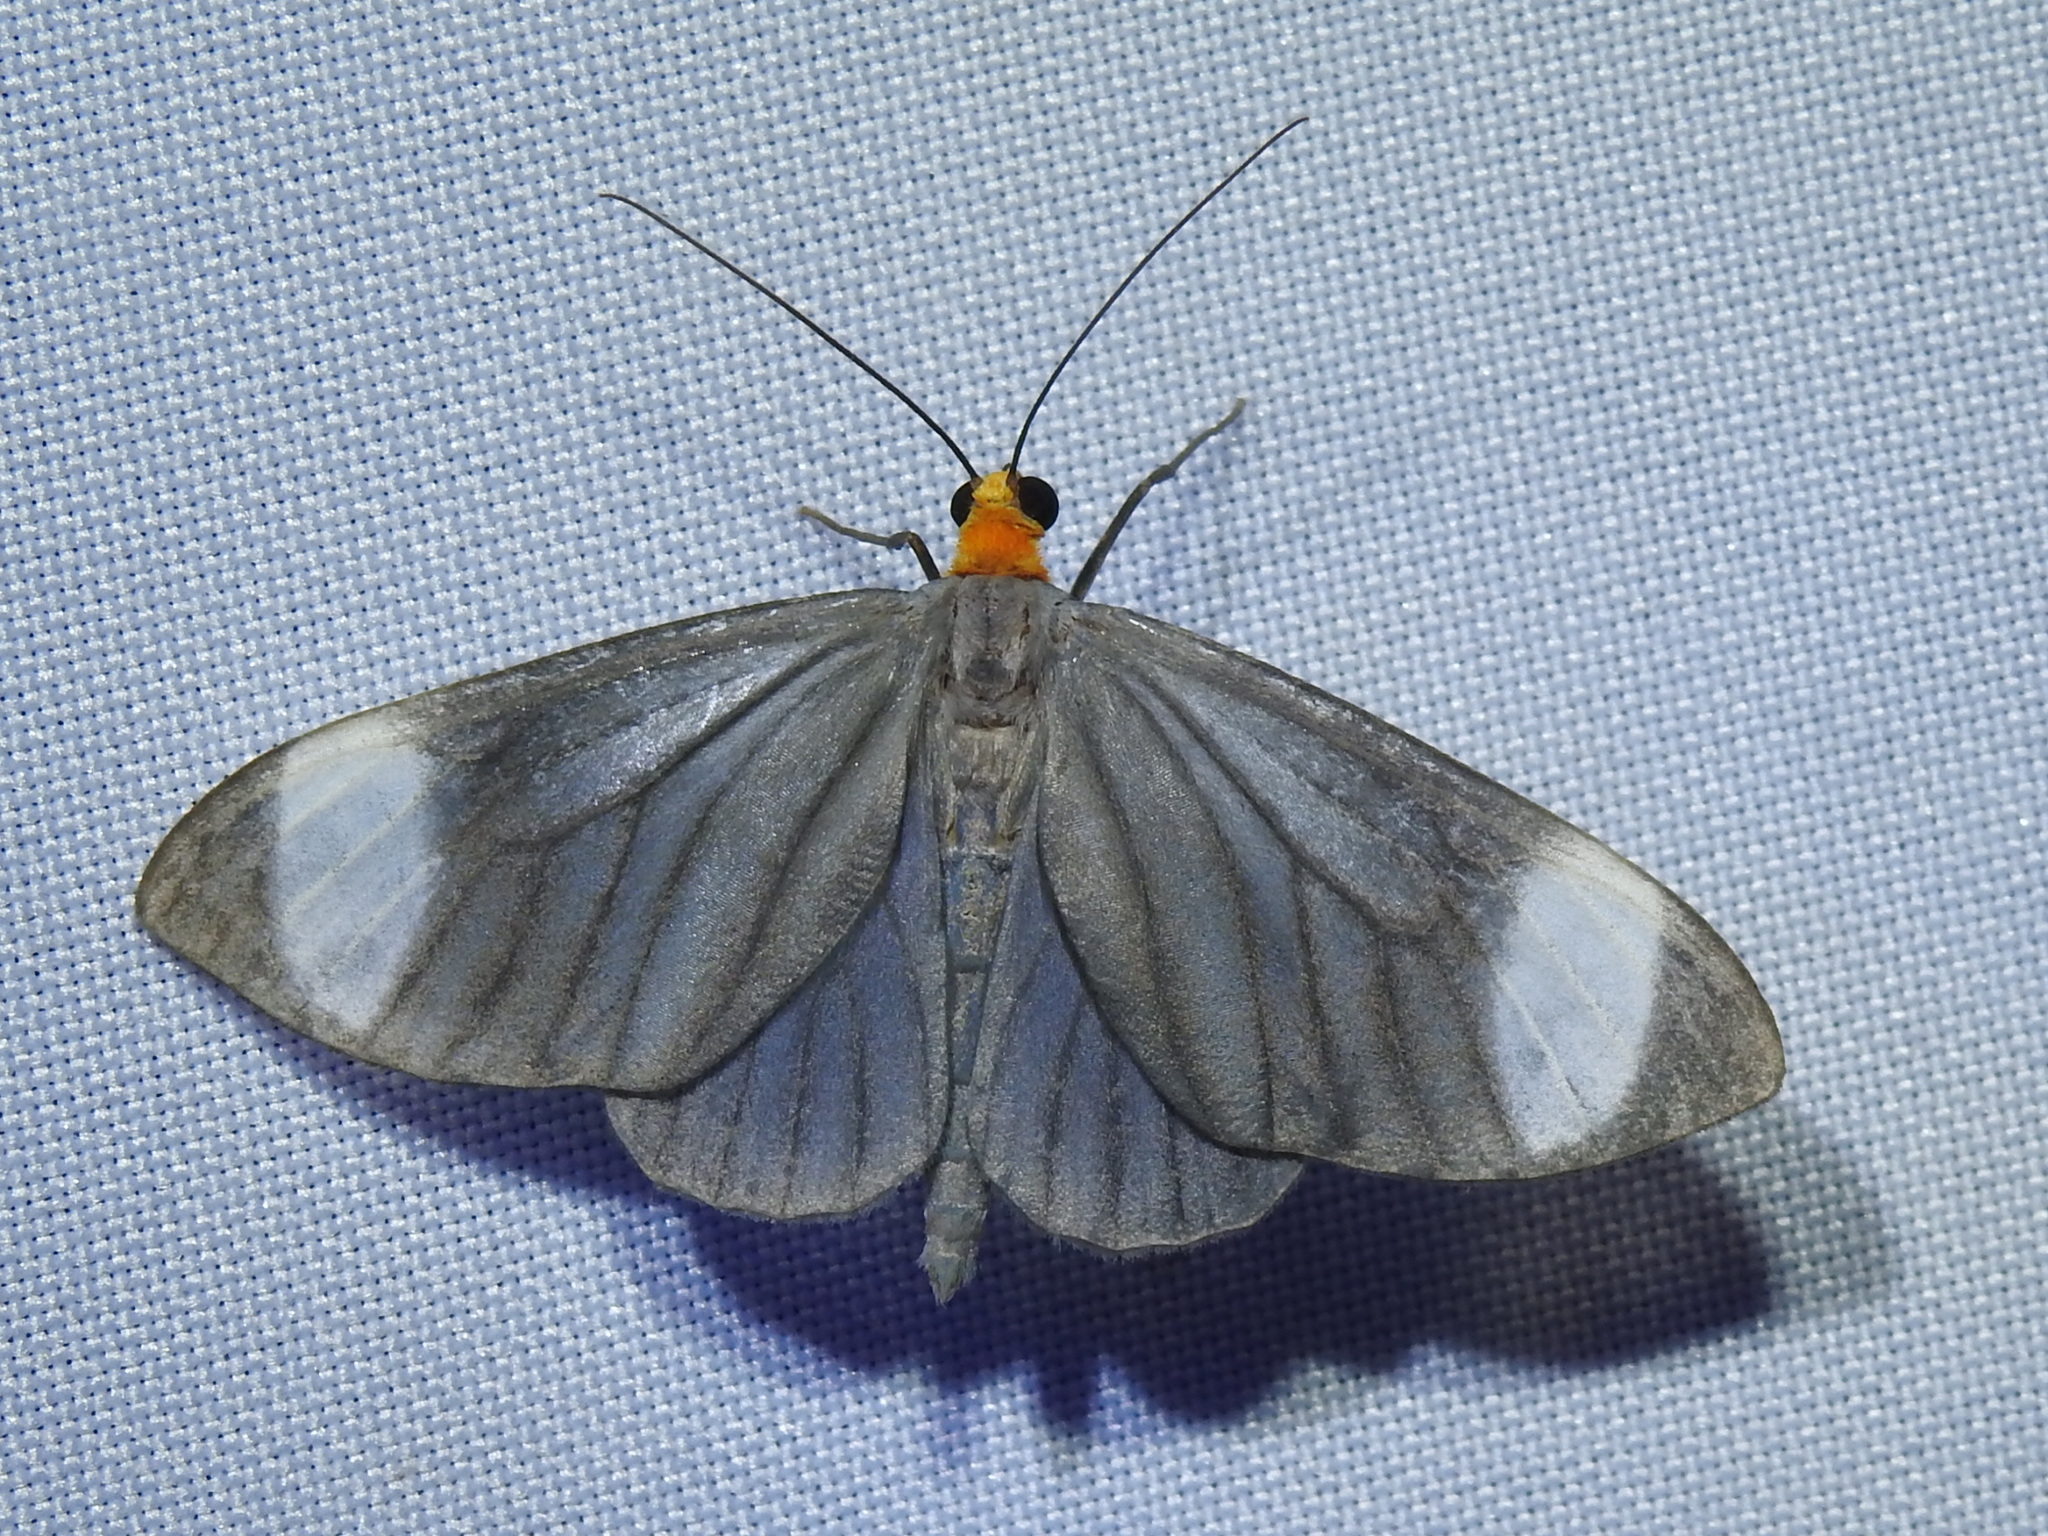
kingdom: Animalia
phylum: Arthropoda
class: Insecta
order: Lepidoptera
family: Geometridae
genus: Crocypus
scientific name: Crocypus perlucidaria
